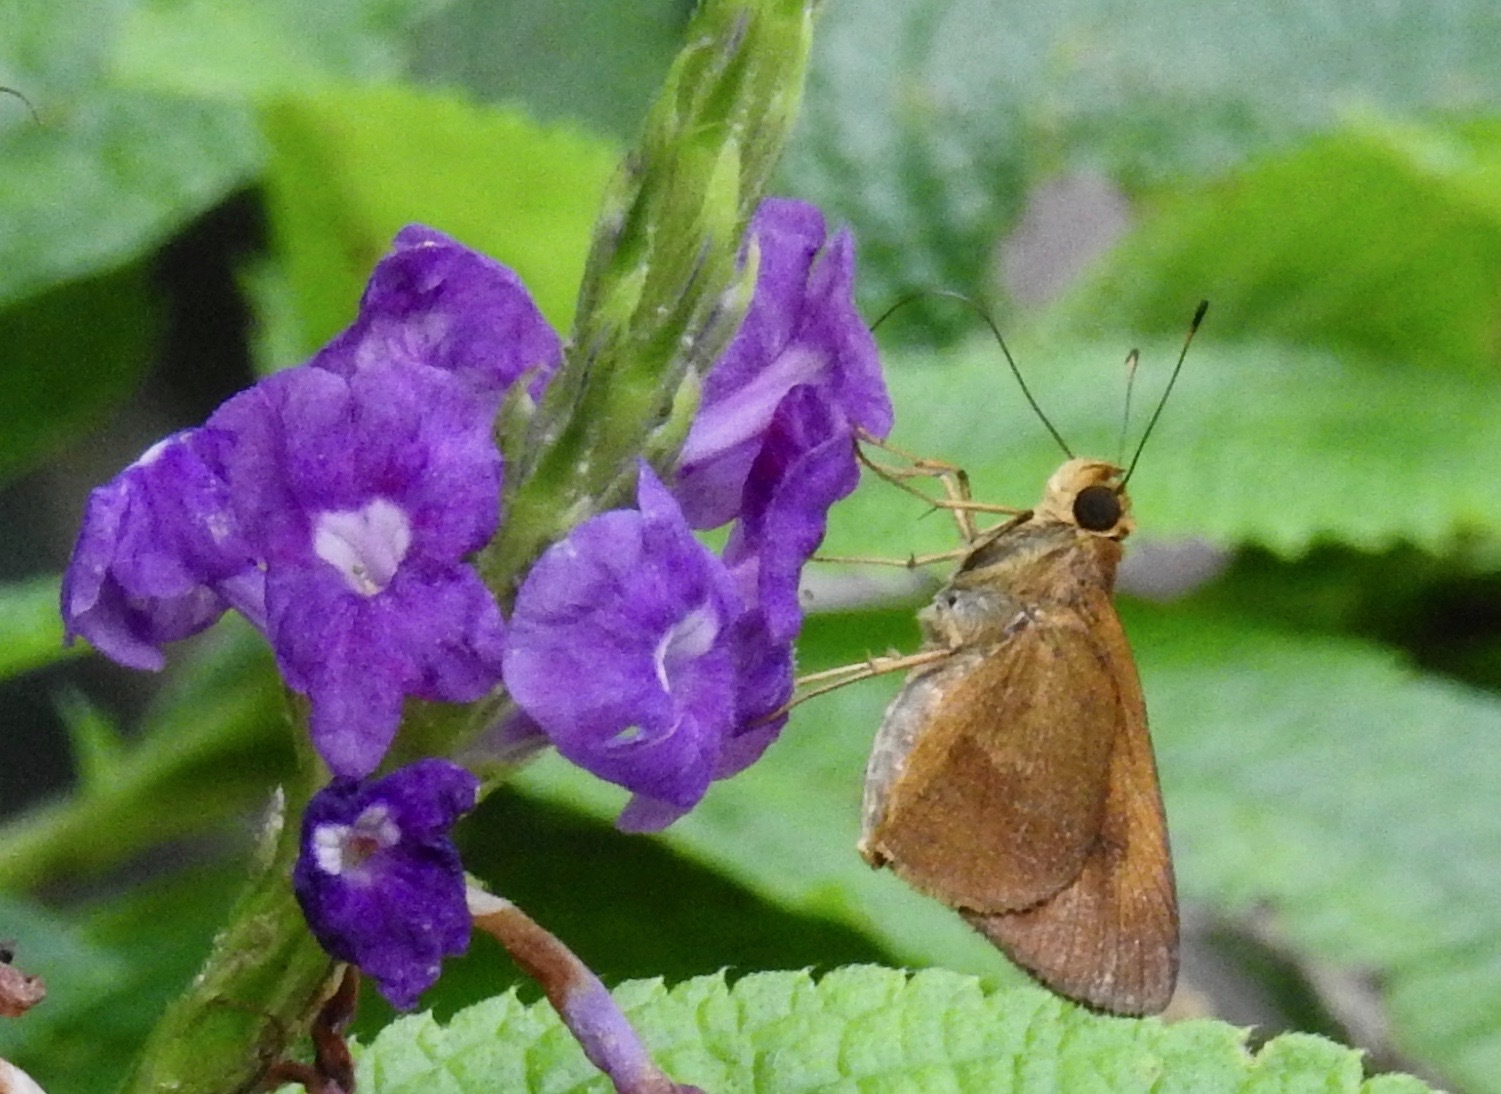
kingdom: Animalia
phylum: Arthropoda
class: Insecta
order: Lepidoptera
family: Hesperiidae
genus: Synapte
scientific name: Synapte silius
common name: Rain-forest faceted-skipper
